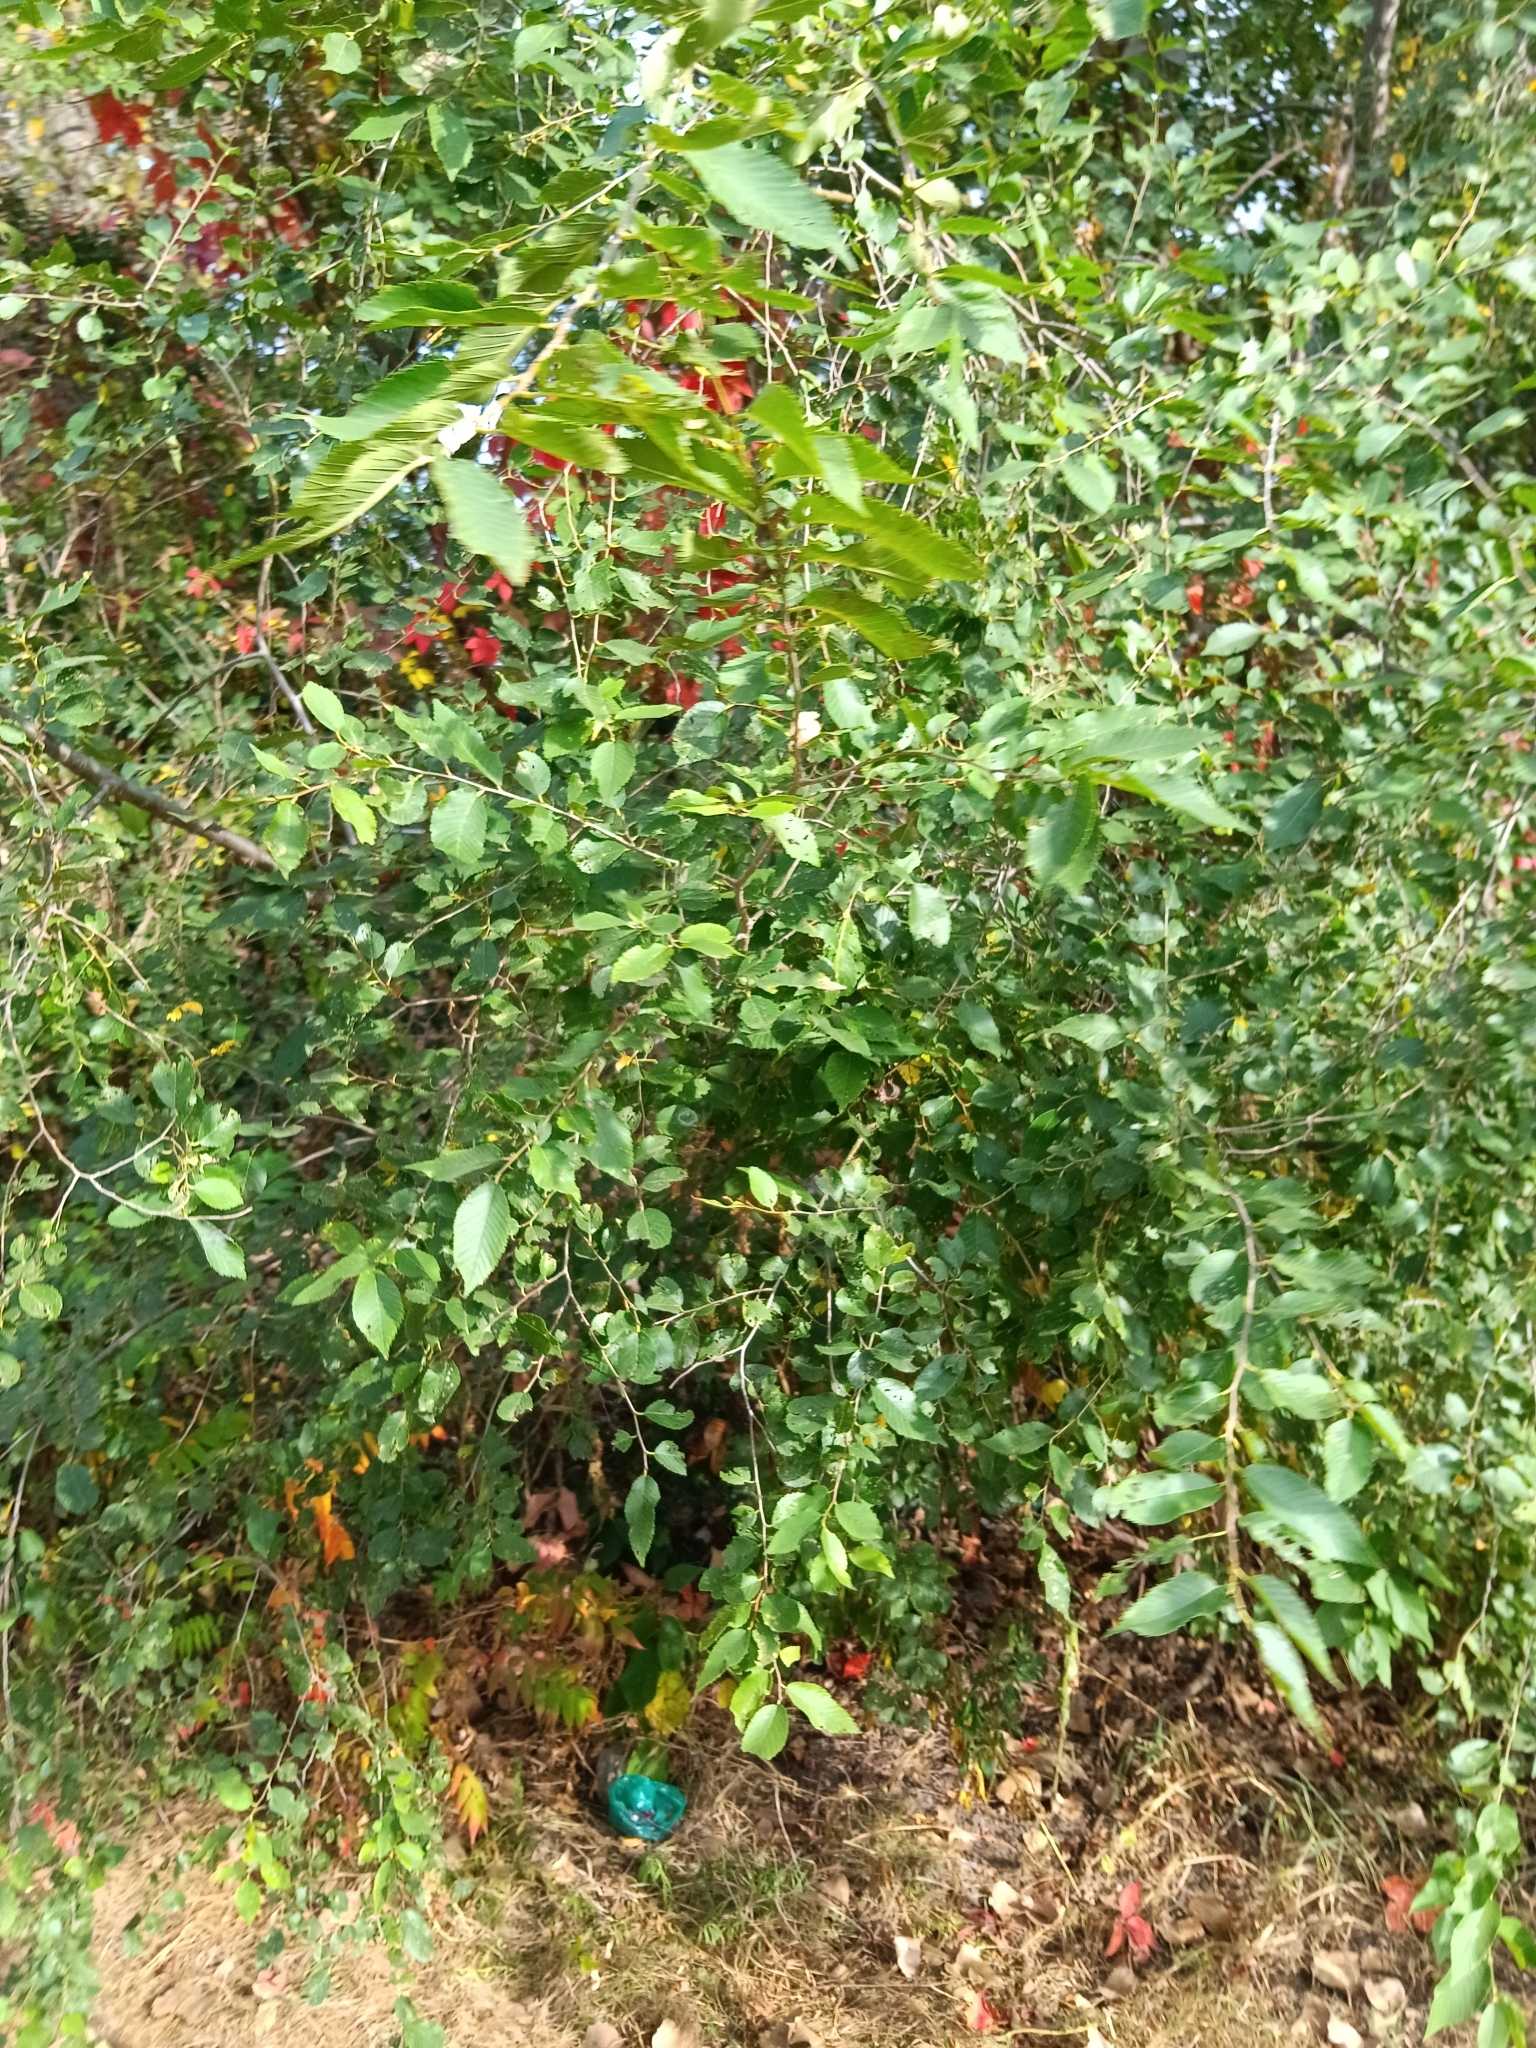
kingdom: Plantae
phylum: Tracheophyta
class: Magnoliopsida
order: Rosales
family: Ulmaceae
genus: Ulmus
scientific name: Ulmus pumila
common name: Siberian elm
